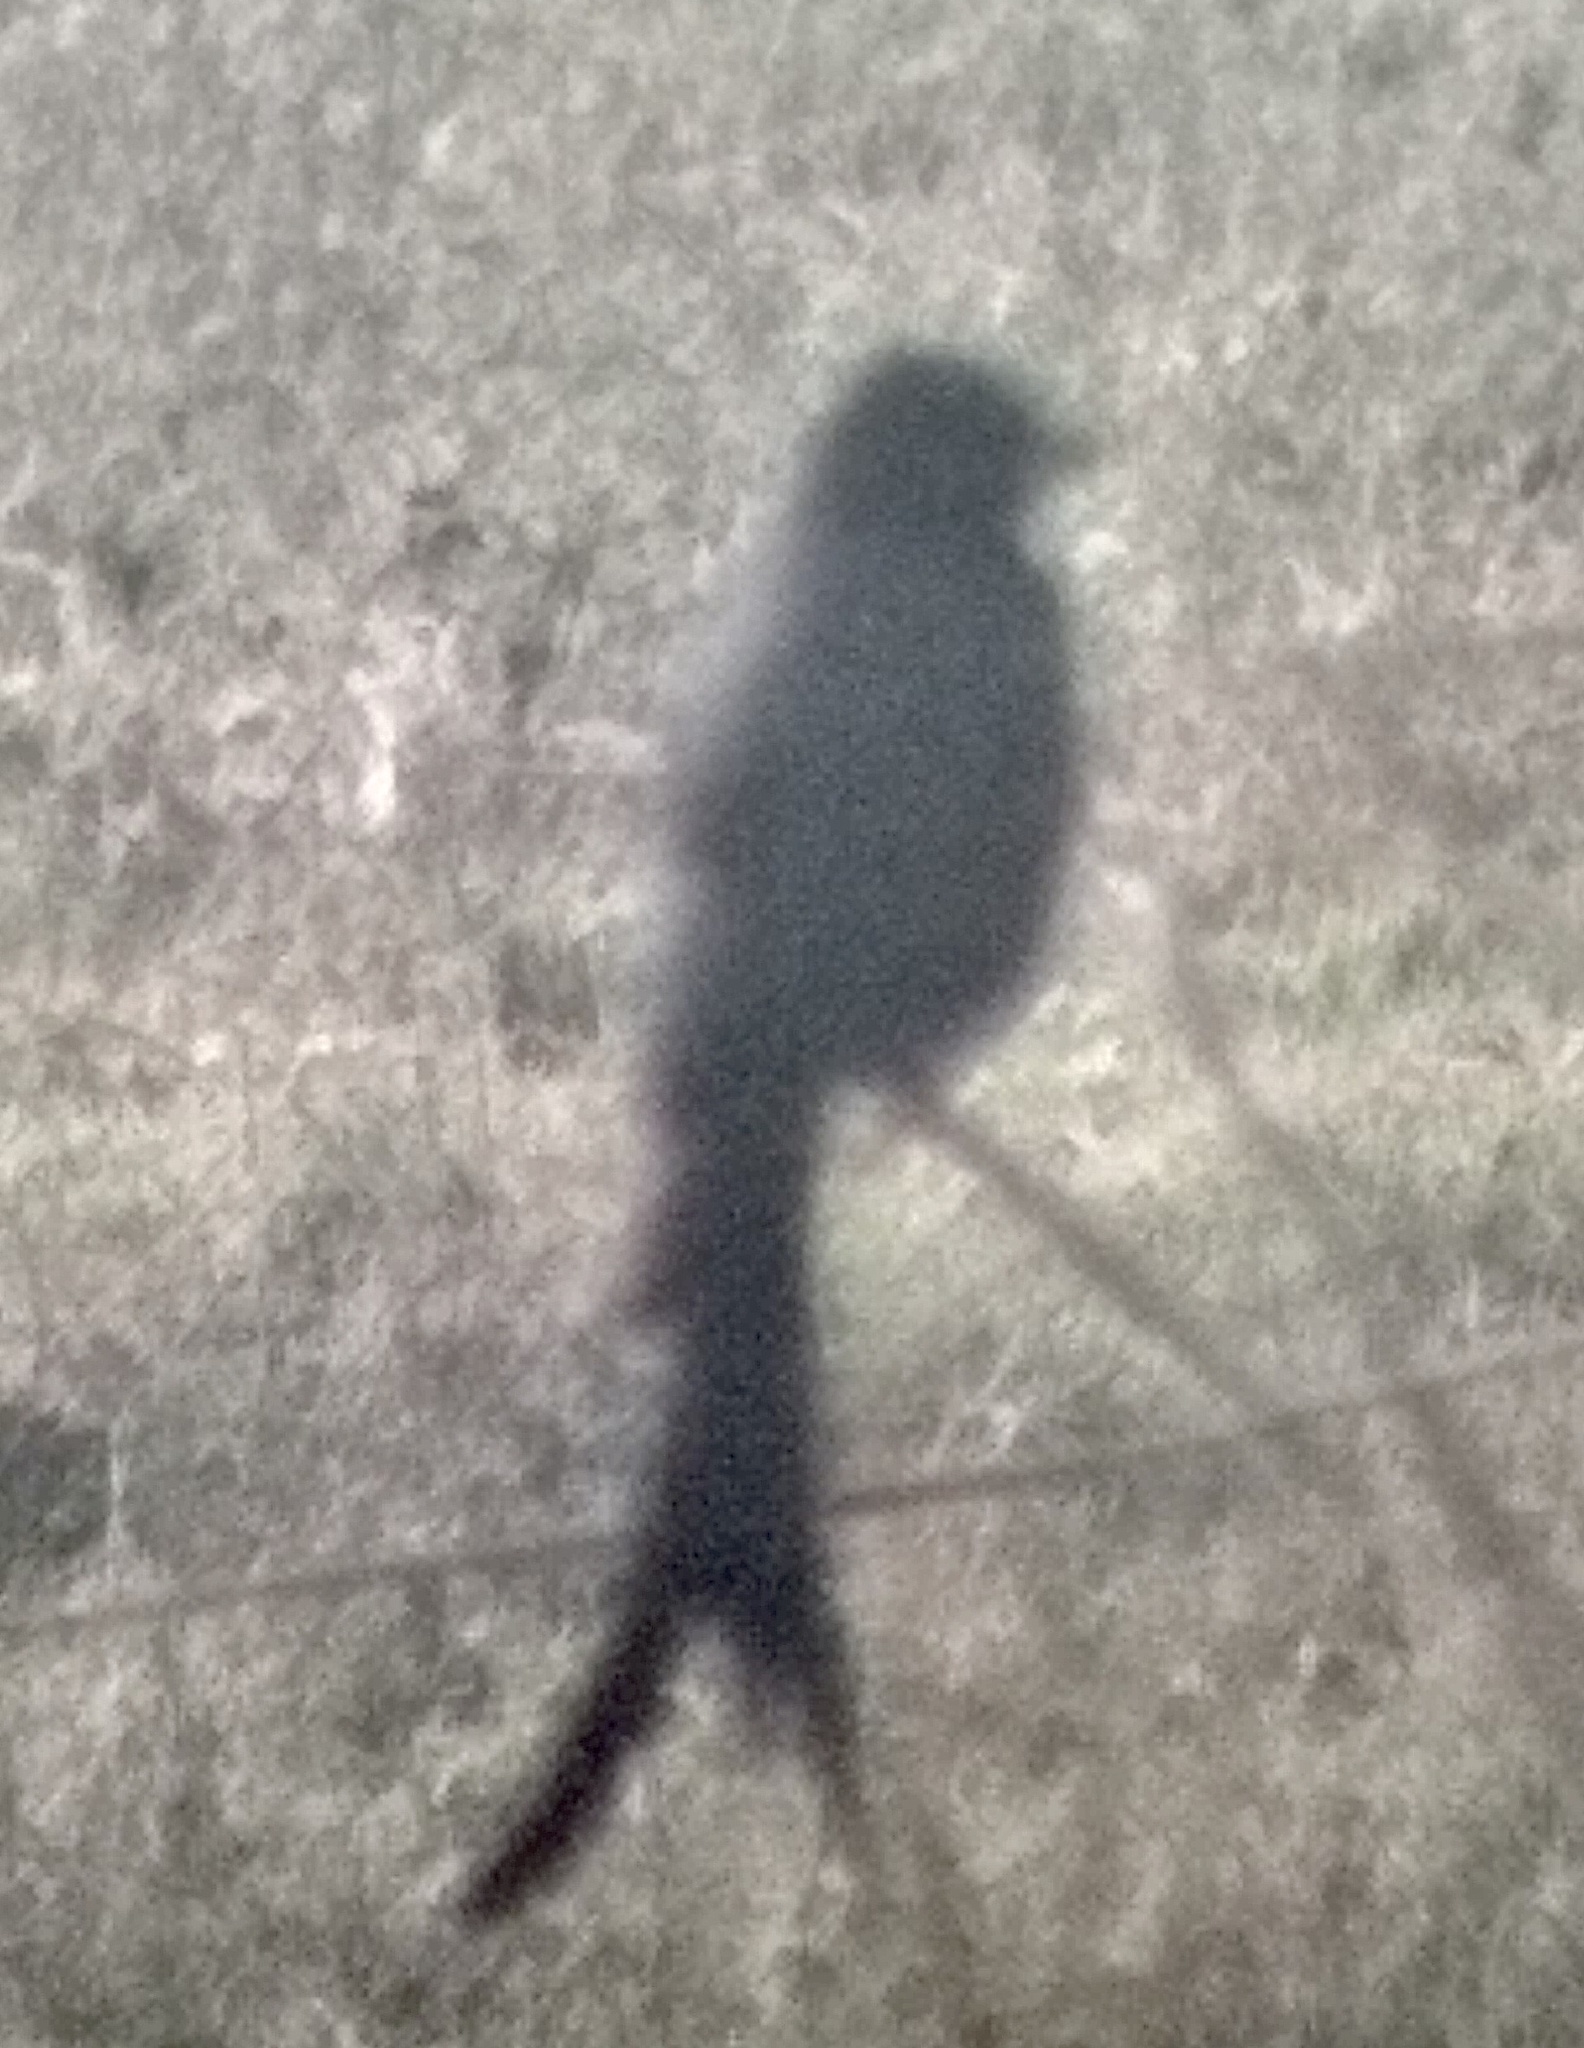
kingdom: Animalia
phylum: Chordata
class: Aves
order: Passeriformes
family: Dicruridae
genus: Dicrurus
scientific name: Dicrurus macrocercus
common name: Black drongo
